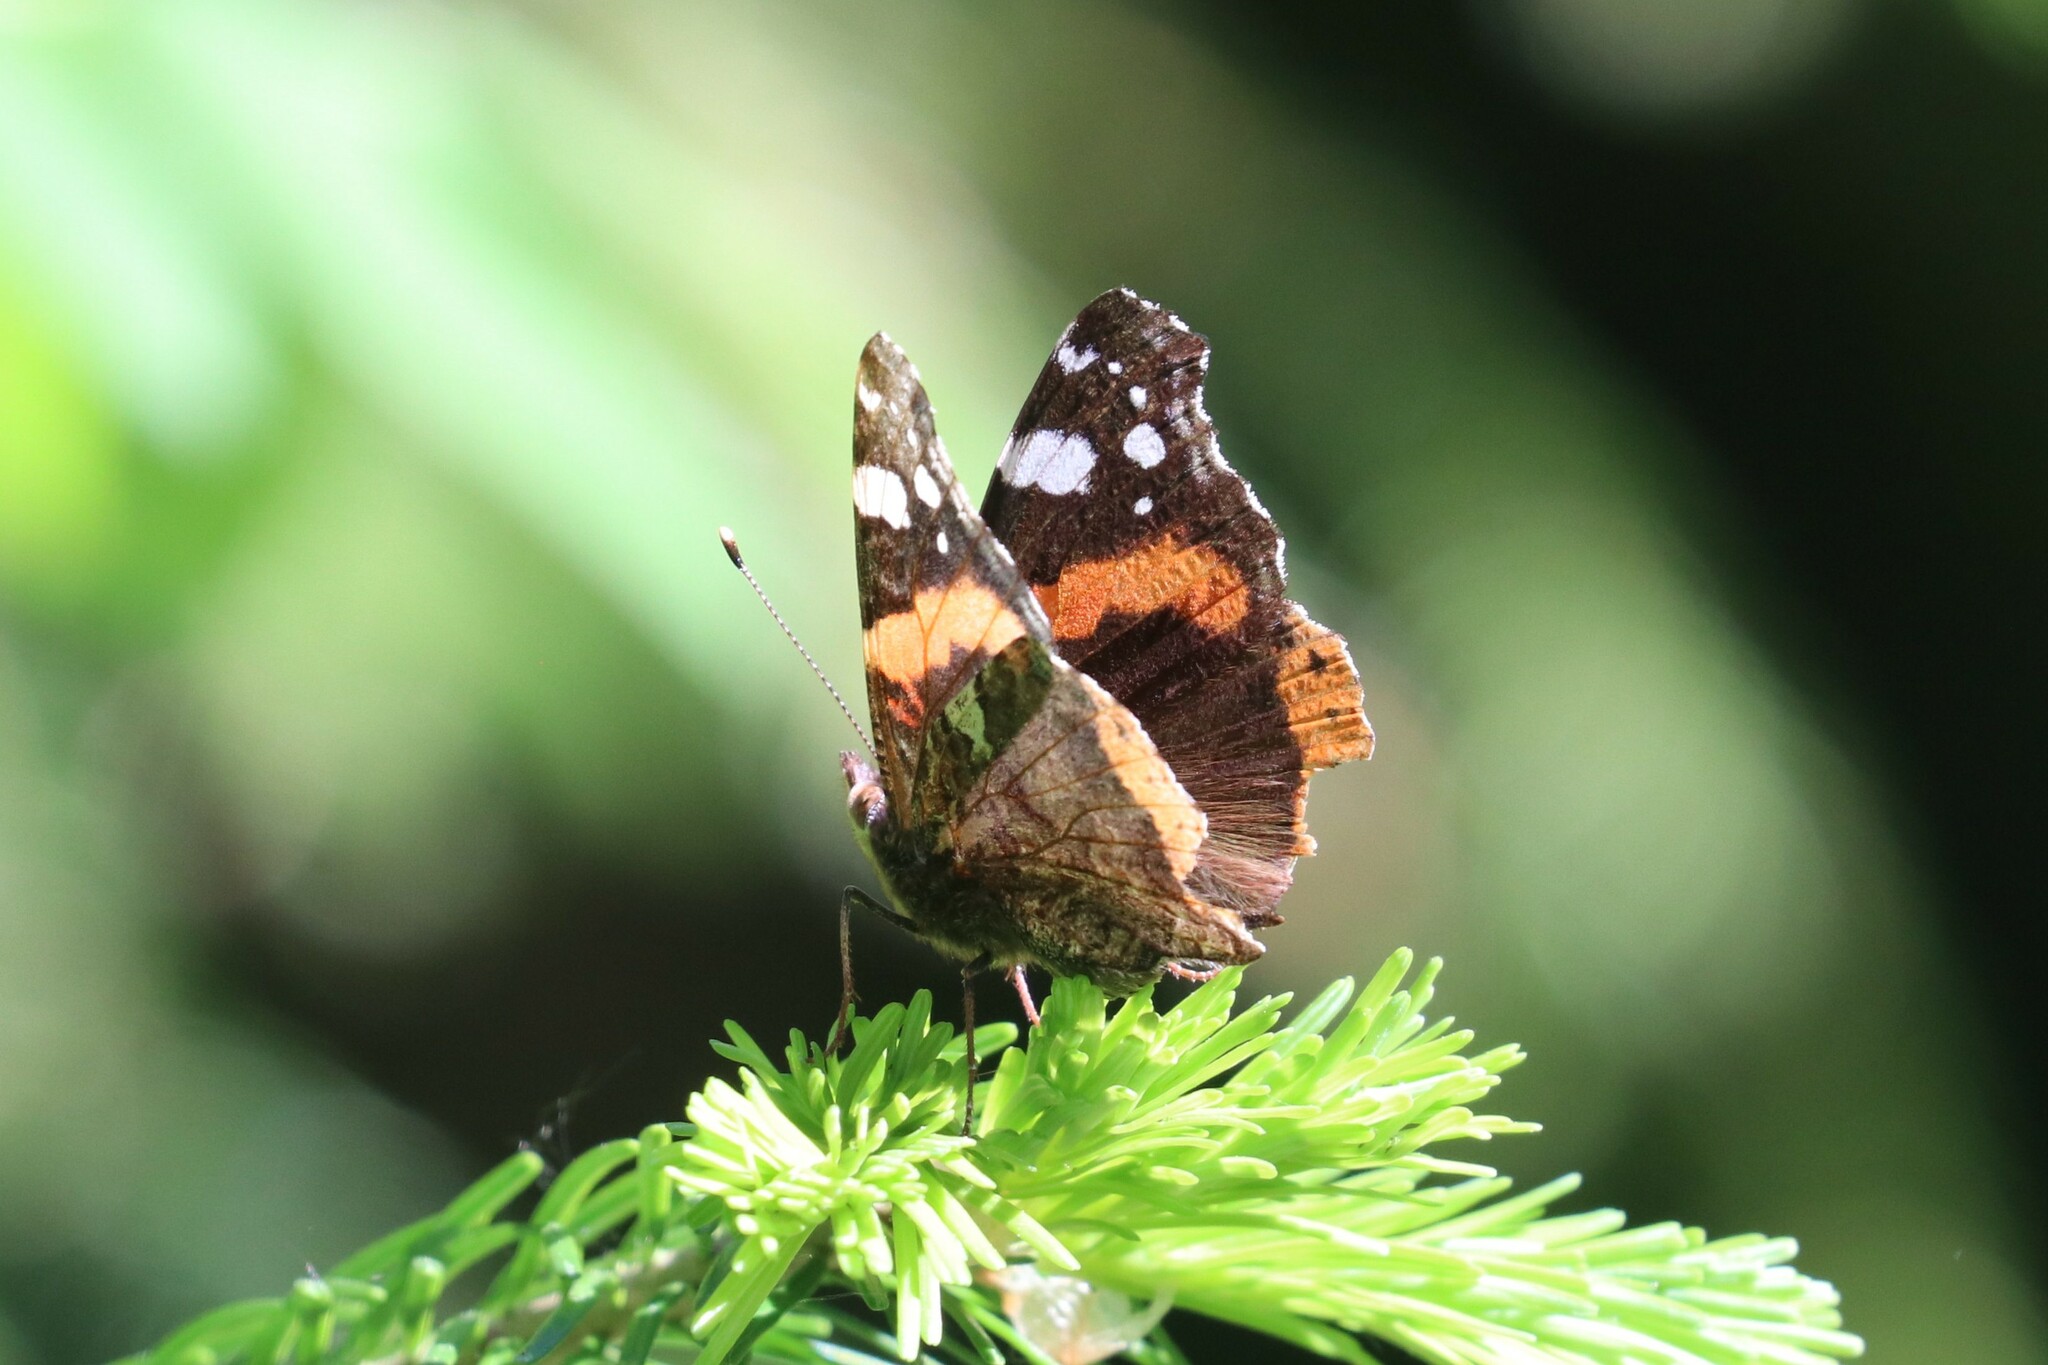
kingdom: Animalia
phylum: Arthropoda
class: Insecta
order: Lepidoptera
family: Nymphalidae
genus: Vanessa
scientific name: Vanessa atalanta
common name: Red admiral
